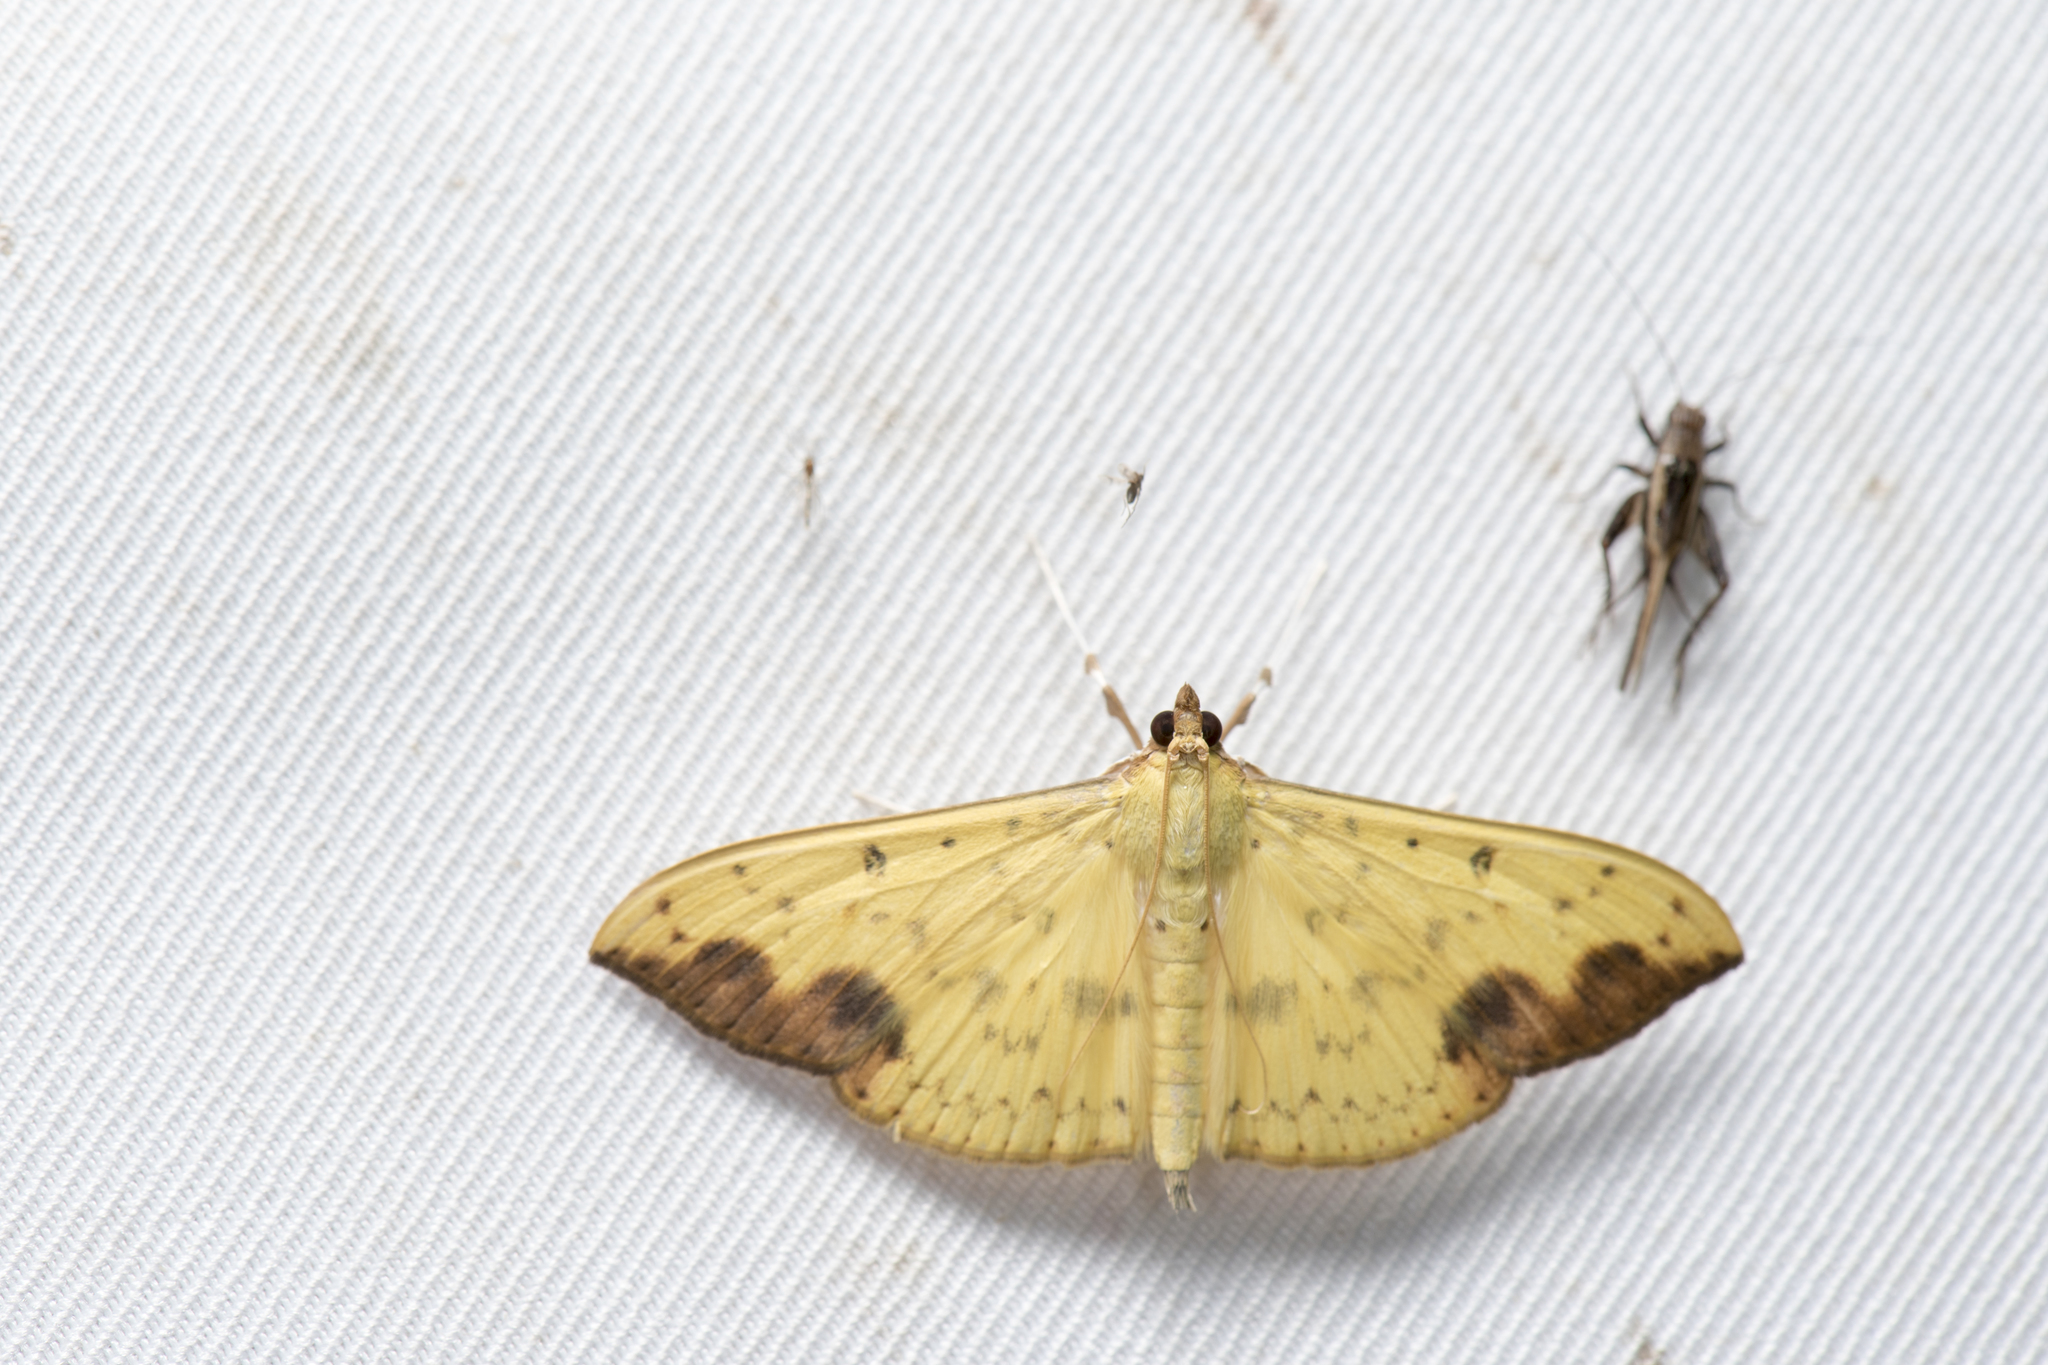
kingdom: Animalia
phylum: Arthropoda
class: Insecta
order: Lepidoptera
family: Crambidae
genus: Botyodes
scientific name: Botyodes principalis
